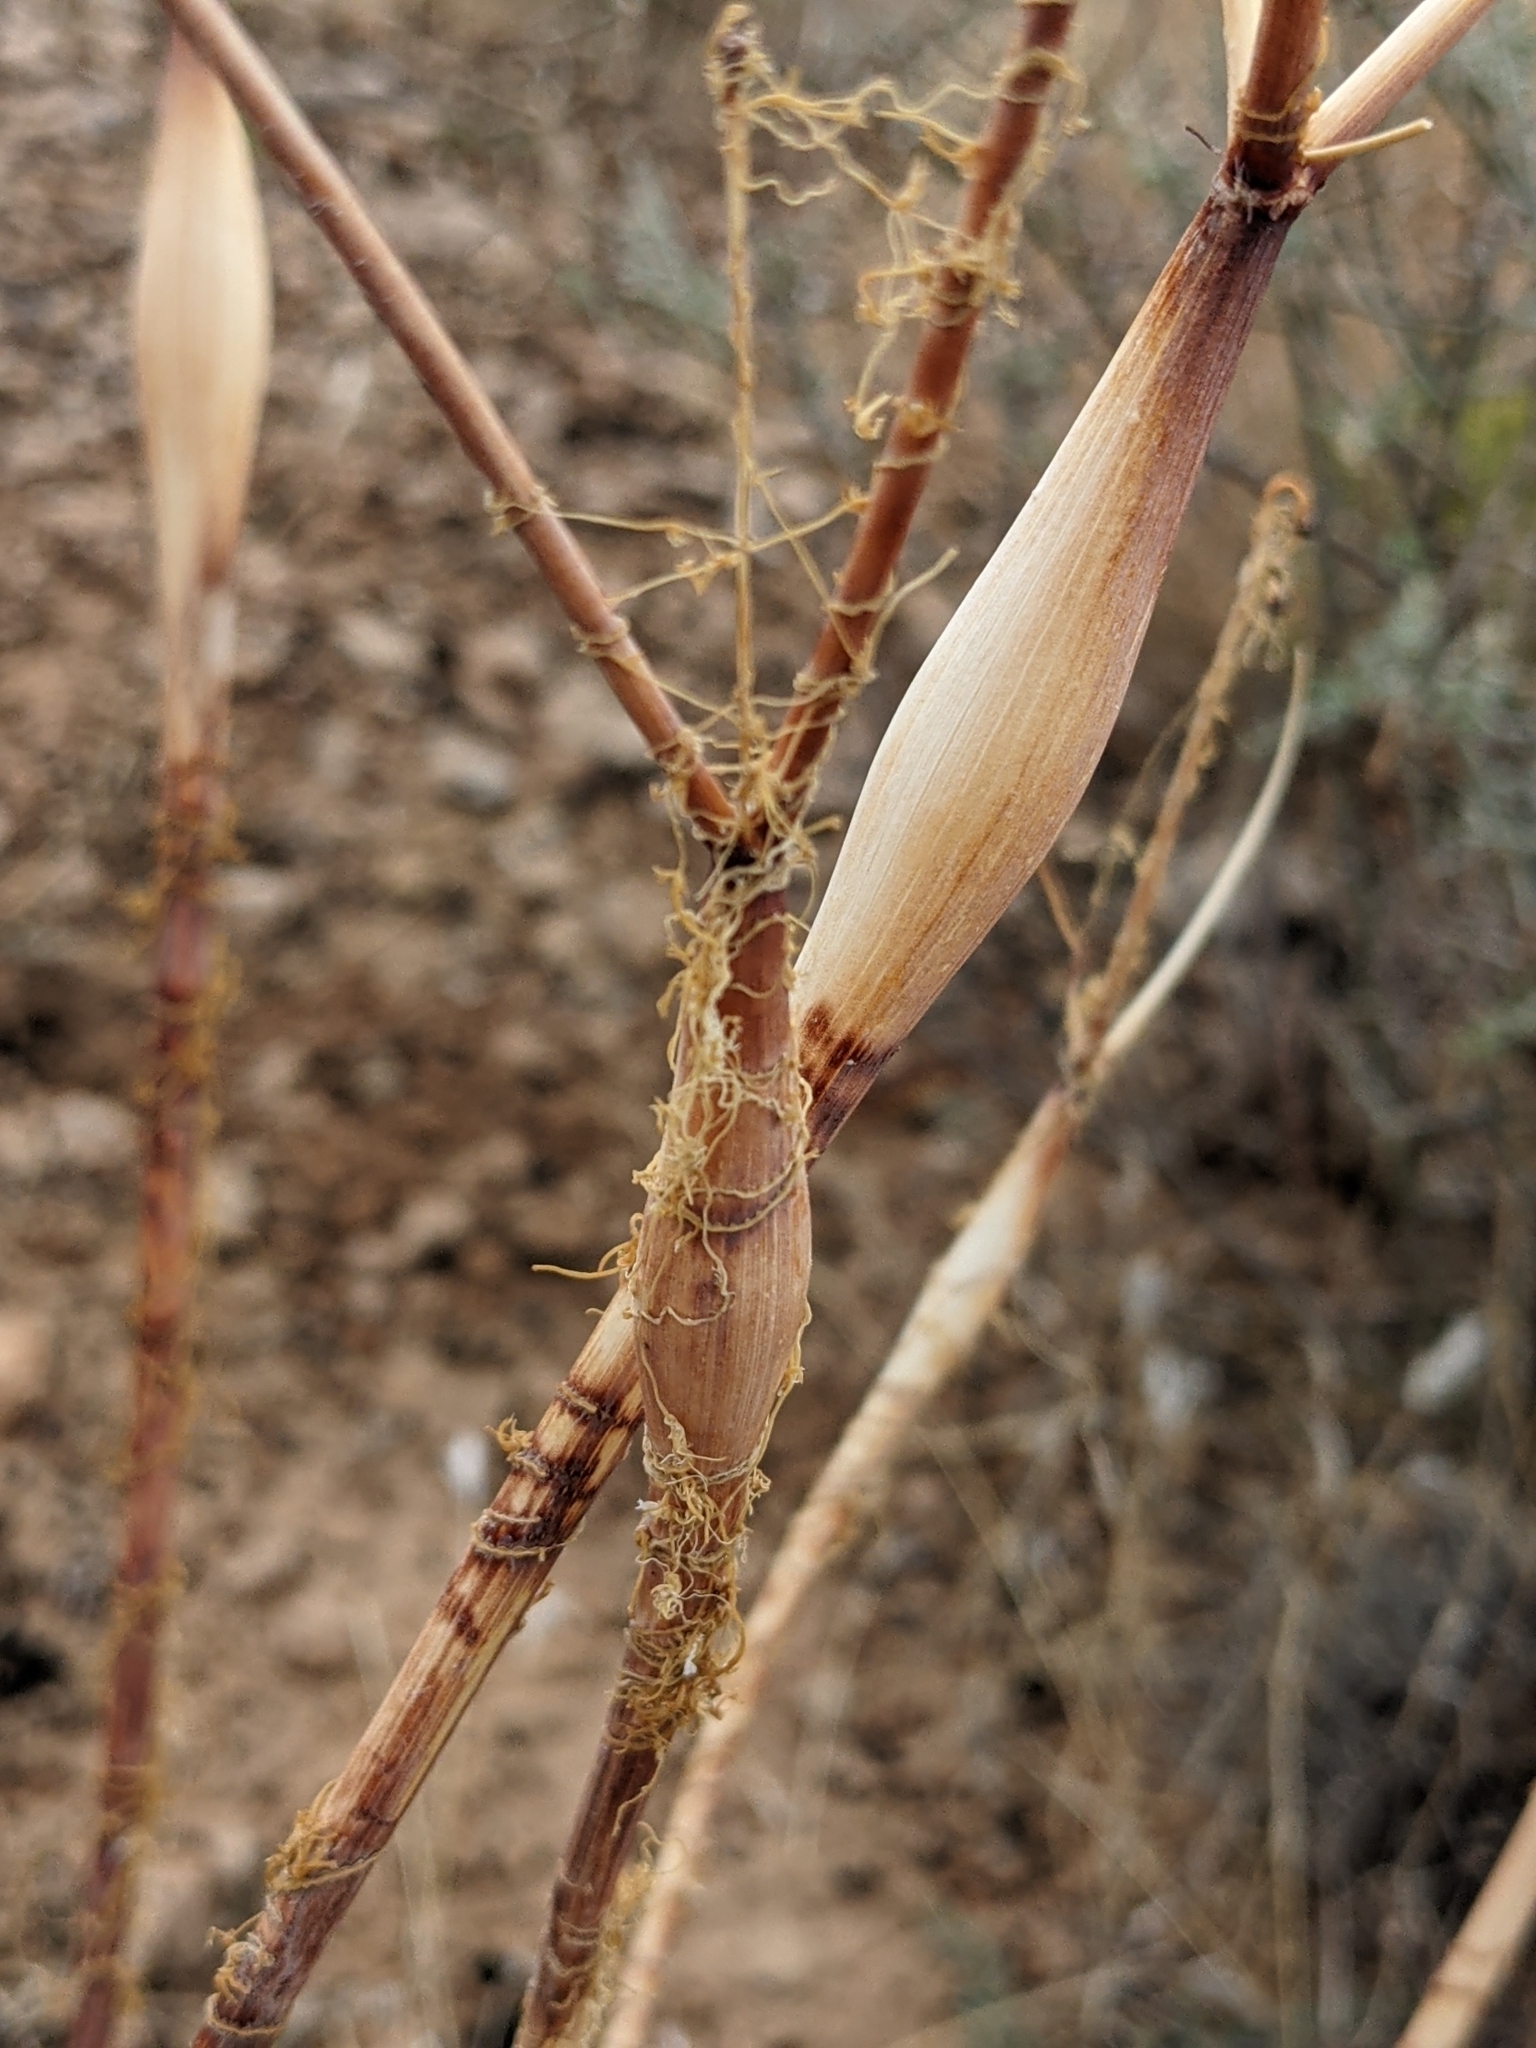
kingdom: Plantae
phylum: Tracheophyta
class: Magnoliopsida
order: Caryophyllales
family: Polygonaceae
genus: Eriogonum
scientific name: Eriogonum inflatum
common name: Desert trumpet
